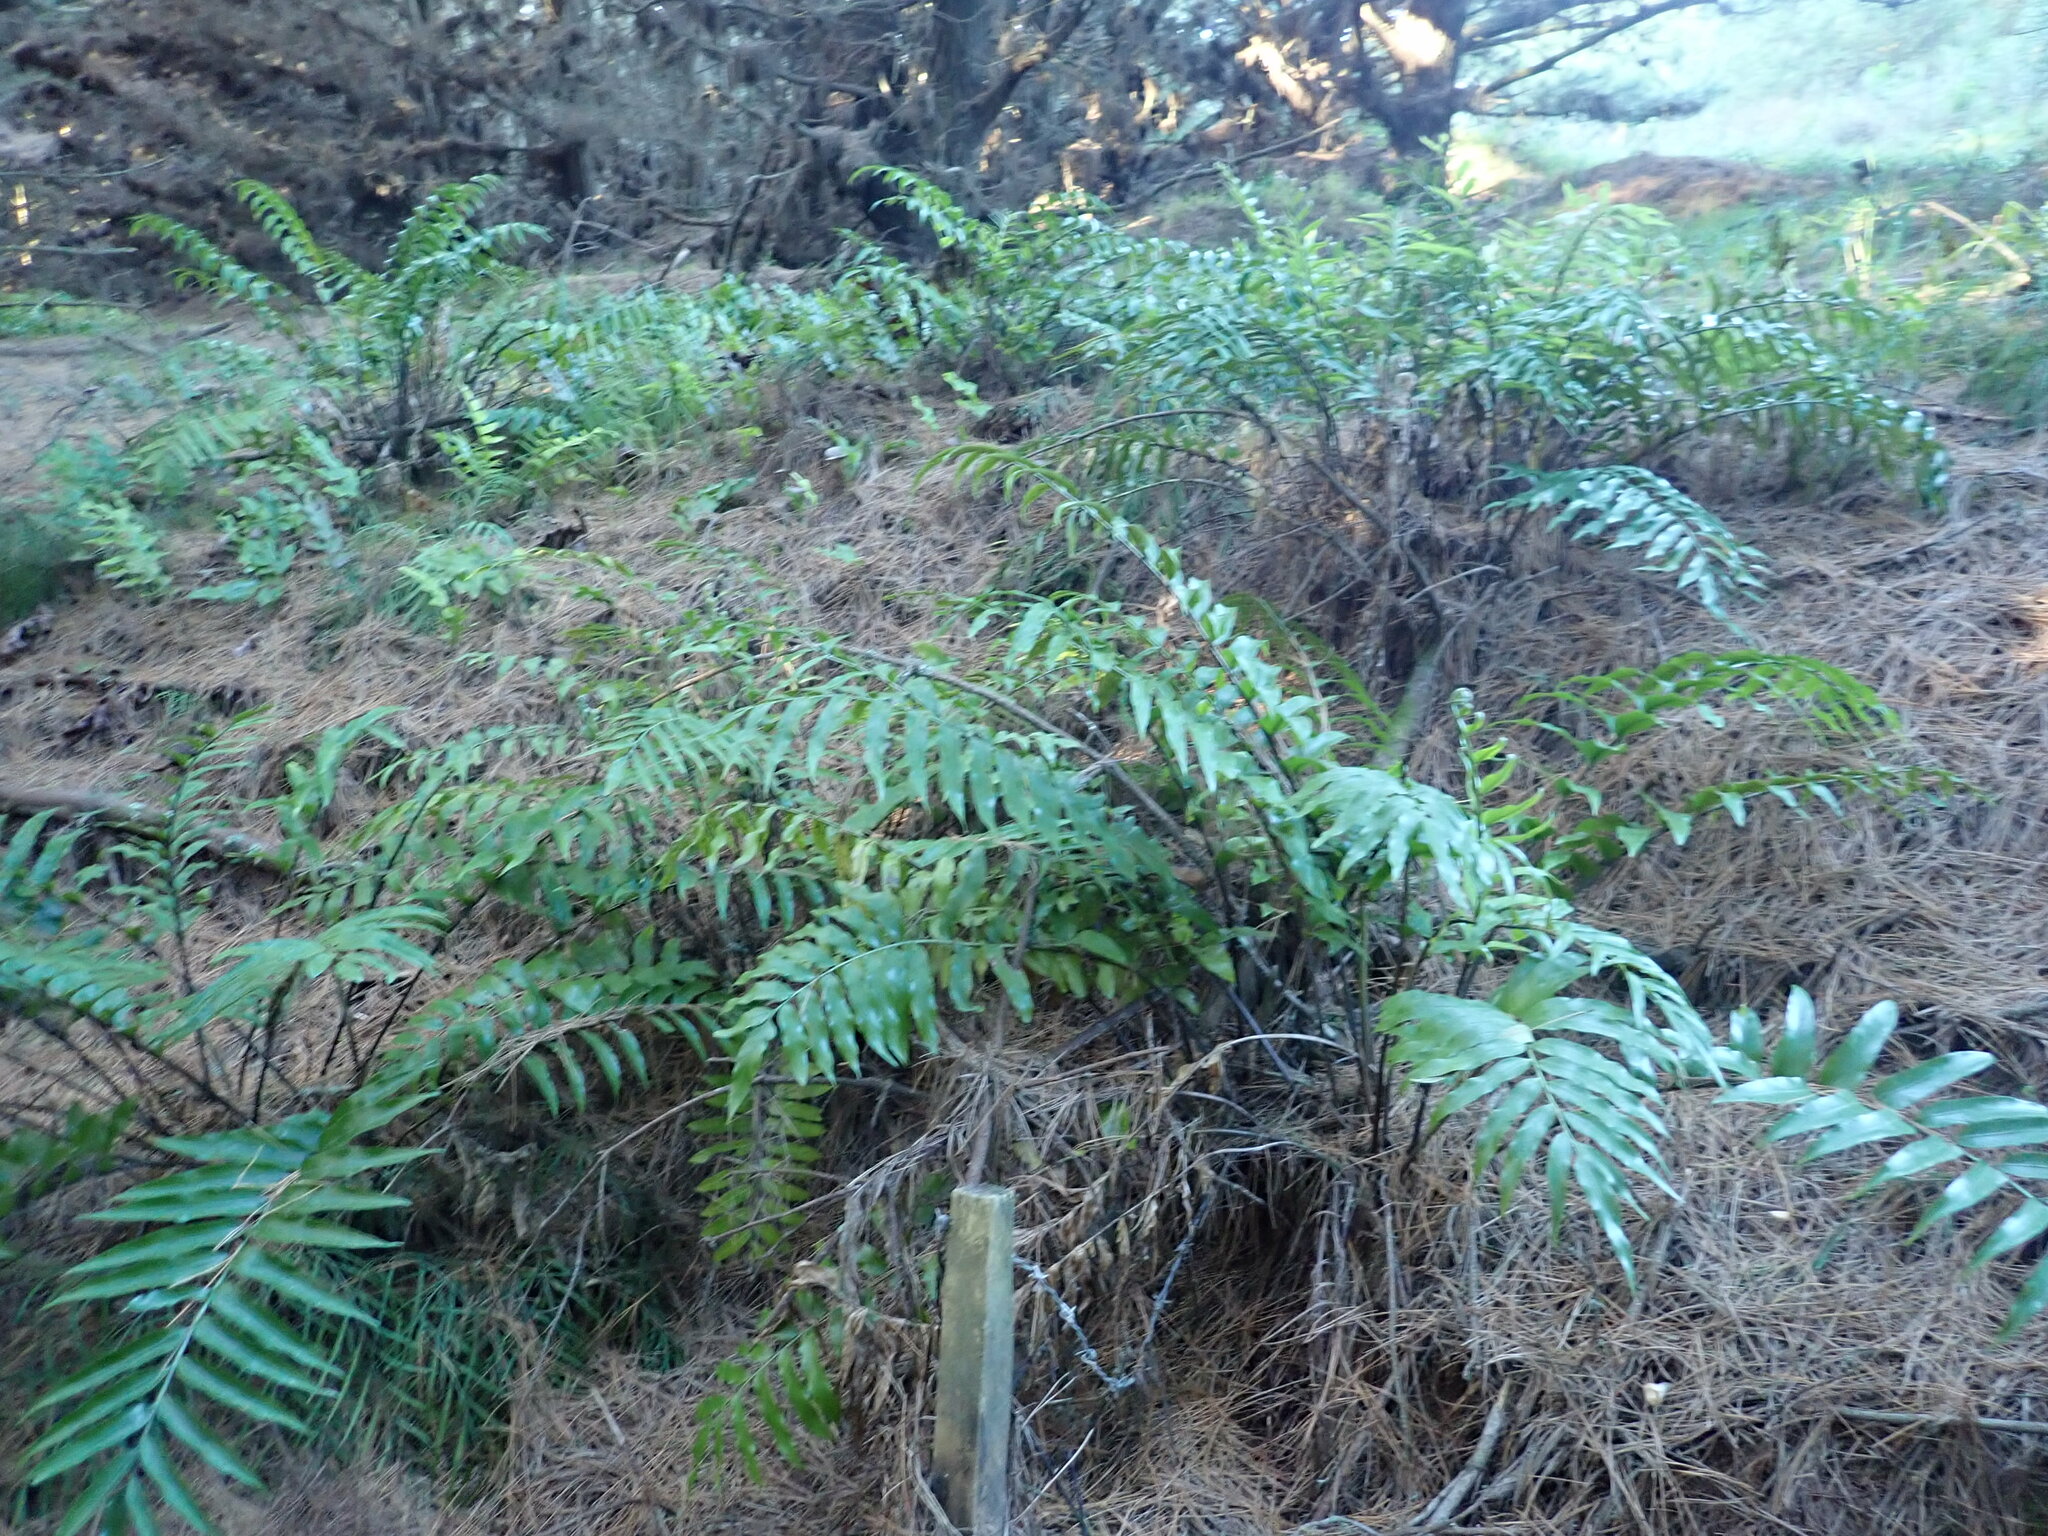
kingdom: Plantae
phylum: Tracheophyta
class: Polypodiopsida
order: Polypodiales
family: Aspleniaceae
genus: Asplenium
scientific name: Asplenium oblongifolium
